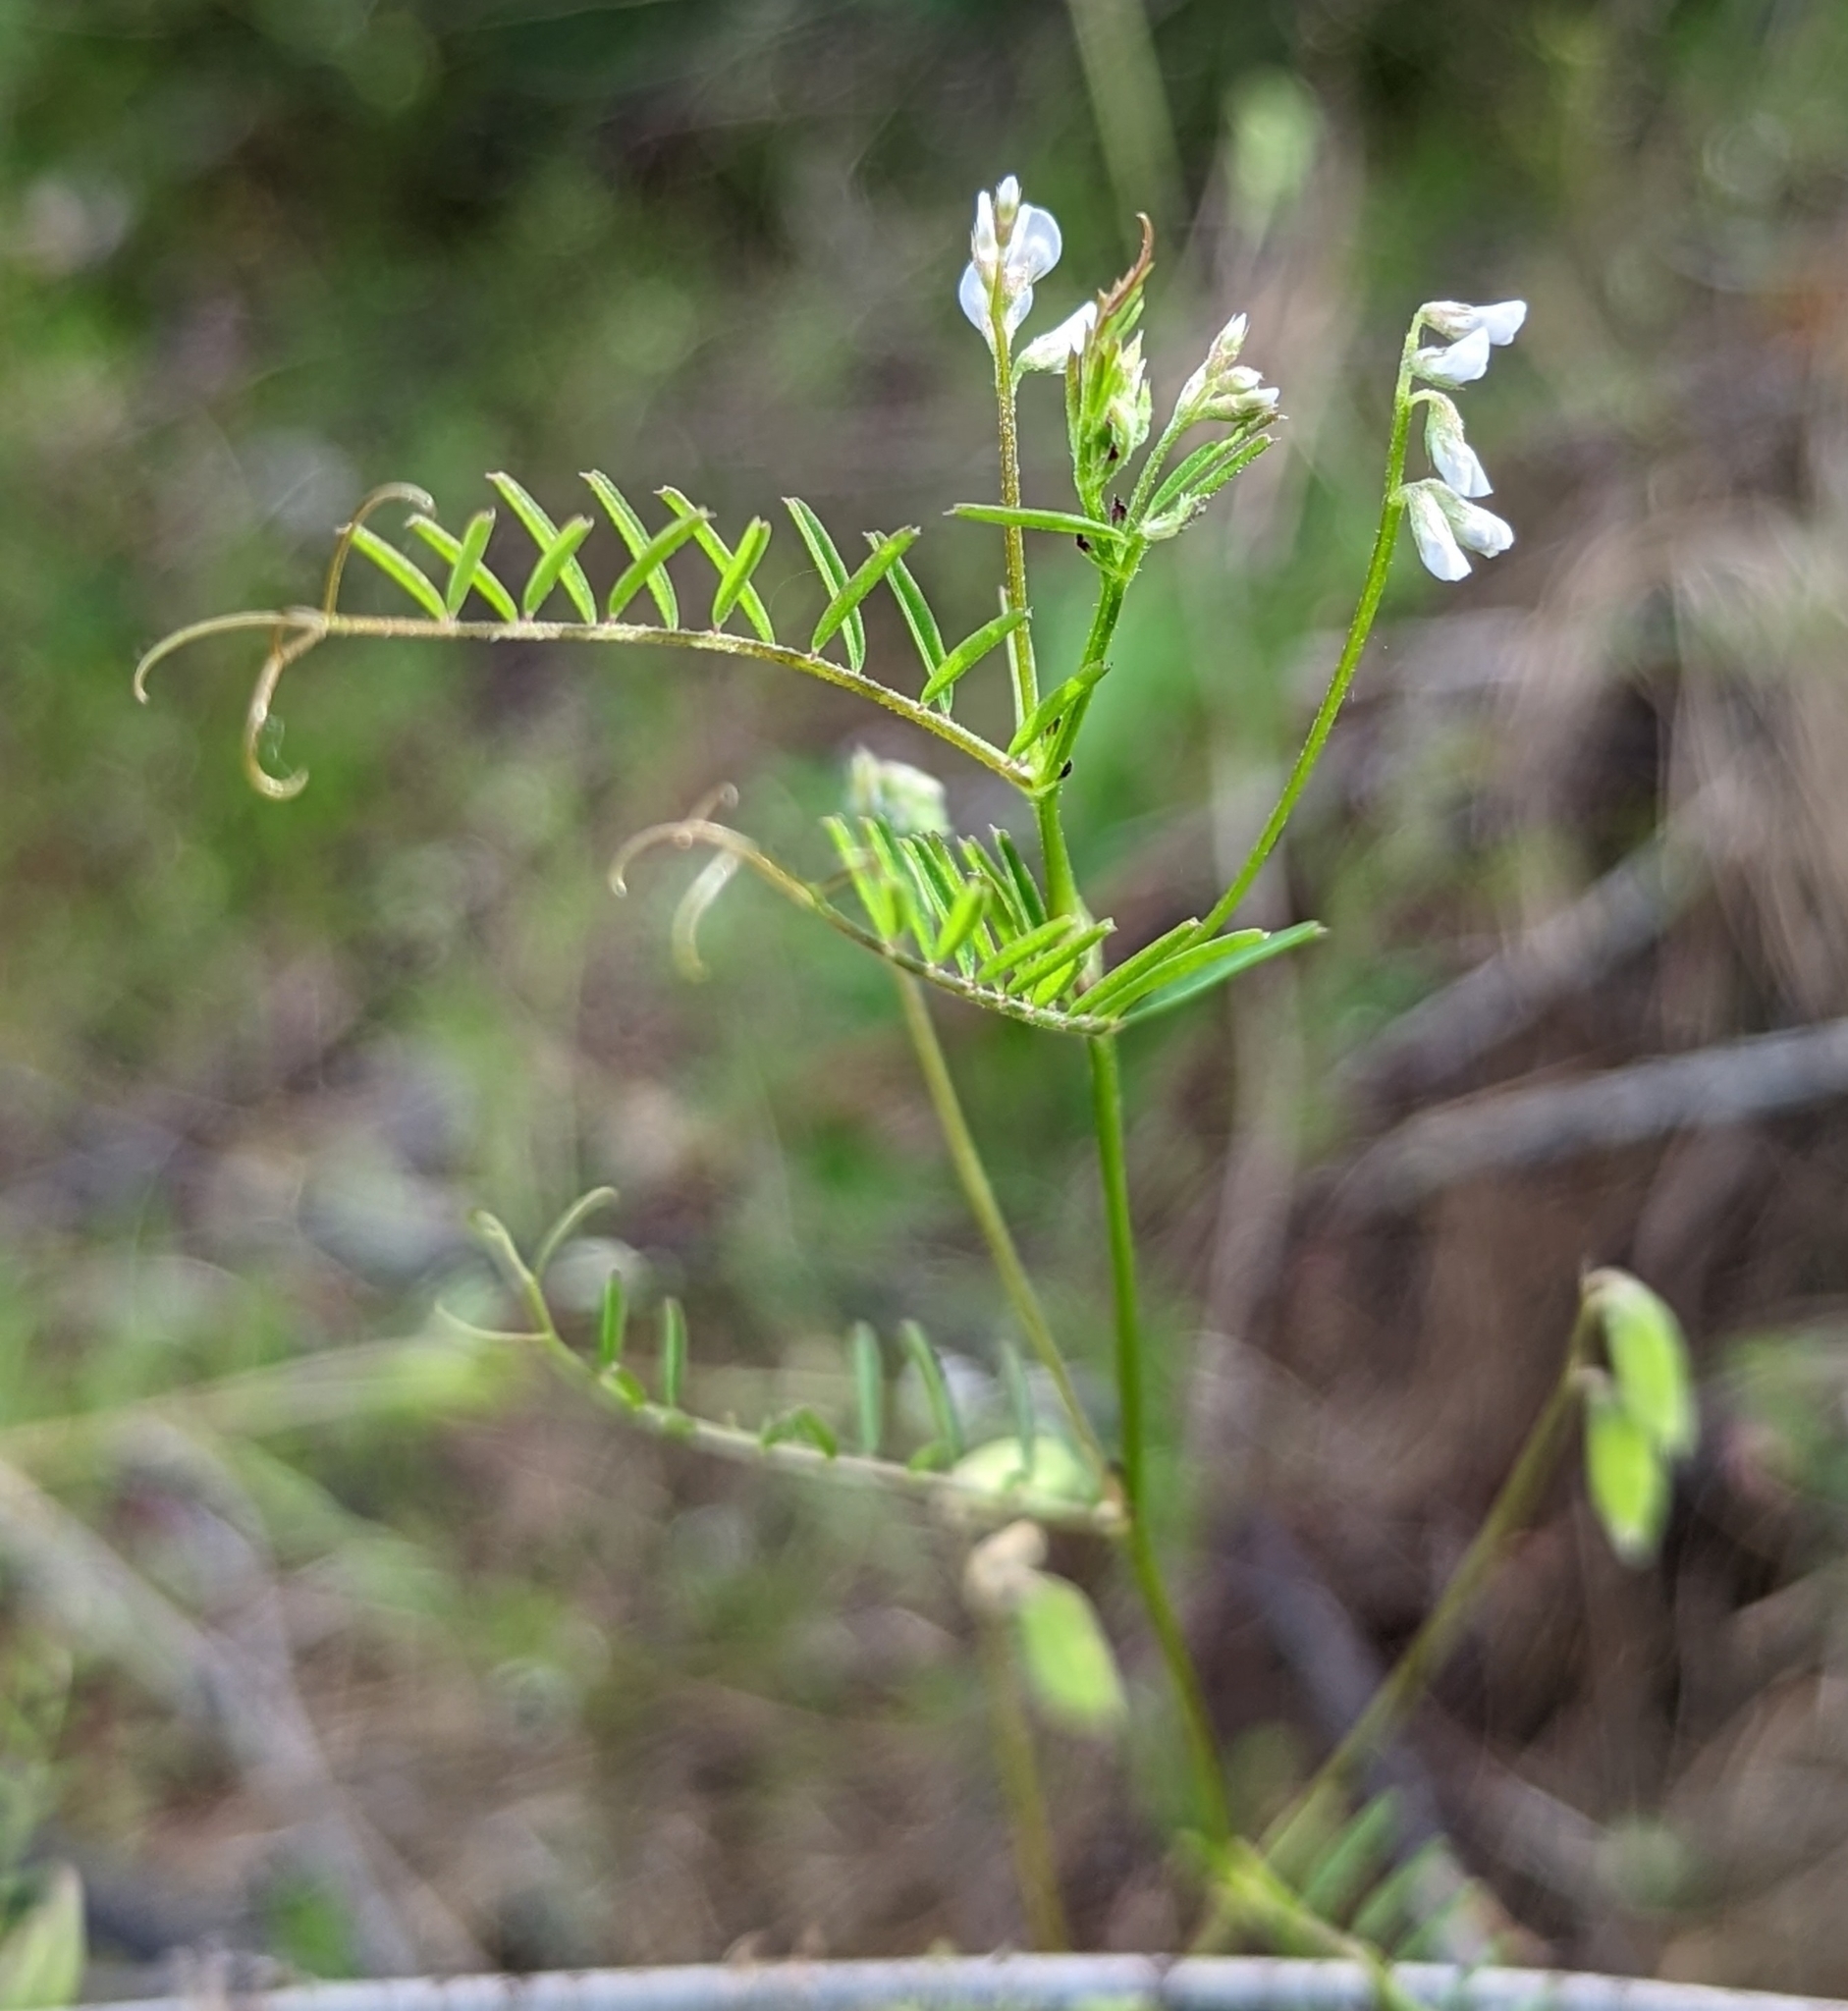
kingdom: Plantae
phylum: Tracheophyta
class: Magnoliopsida
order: Fabales
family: Fabaceae
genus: Vicia
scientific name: Vicia hirsuta
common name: Tiny vetch
